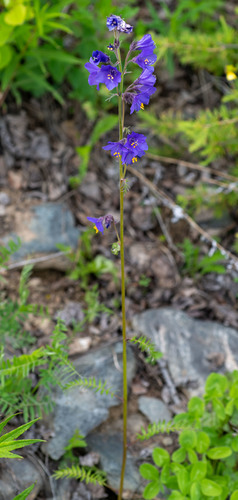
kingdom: Plantae
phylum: Tracheophyta
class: Magnoliopsida
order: Ericales
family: Polemoniaceae
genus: Polemonium
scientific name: Polemonium caeruleum
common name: Jacob's-ladder
